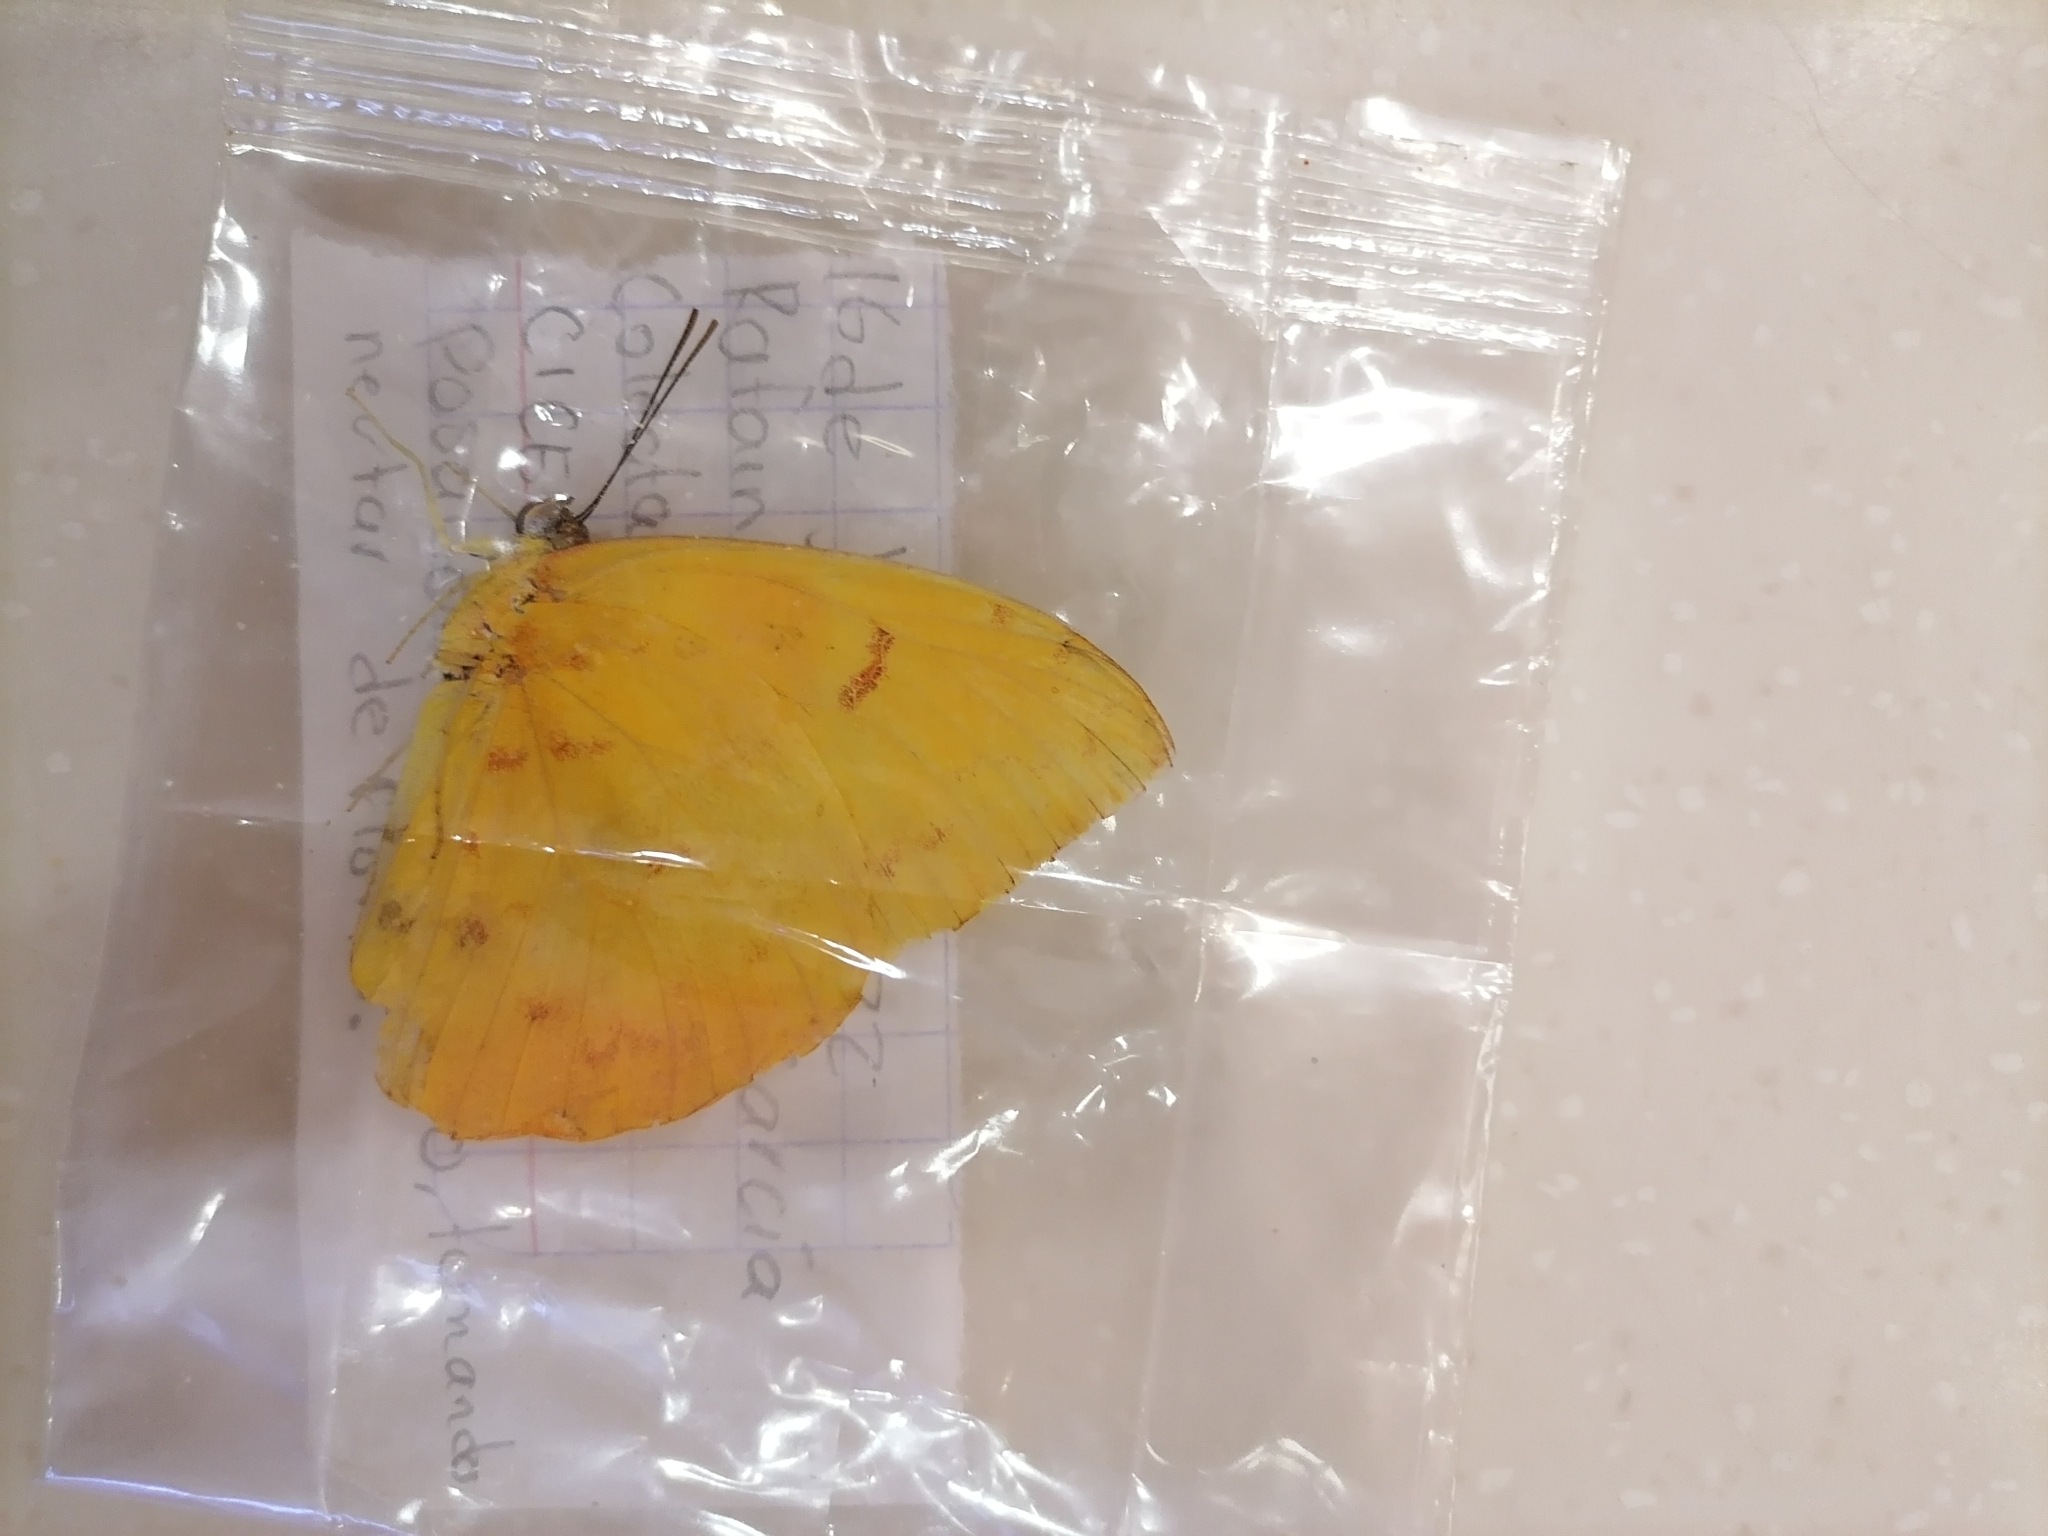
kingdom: Animalia
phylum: Arthropoda
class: Insecta
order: Lepidoptera
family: Pieridae
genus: Phoebis
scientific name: Phoebis philea
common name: Orange-barred giant sulphur
